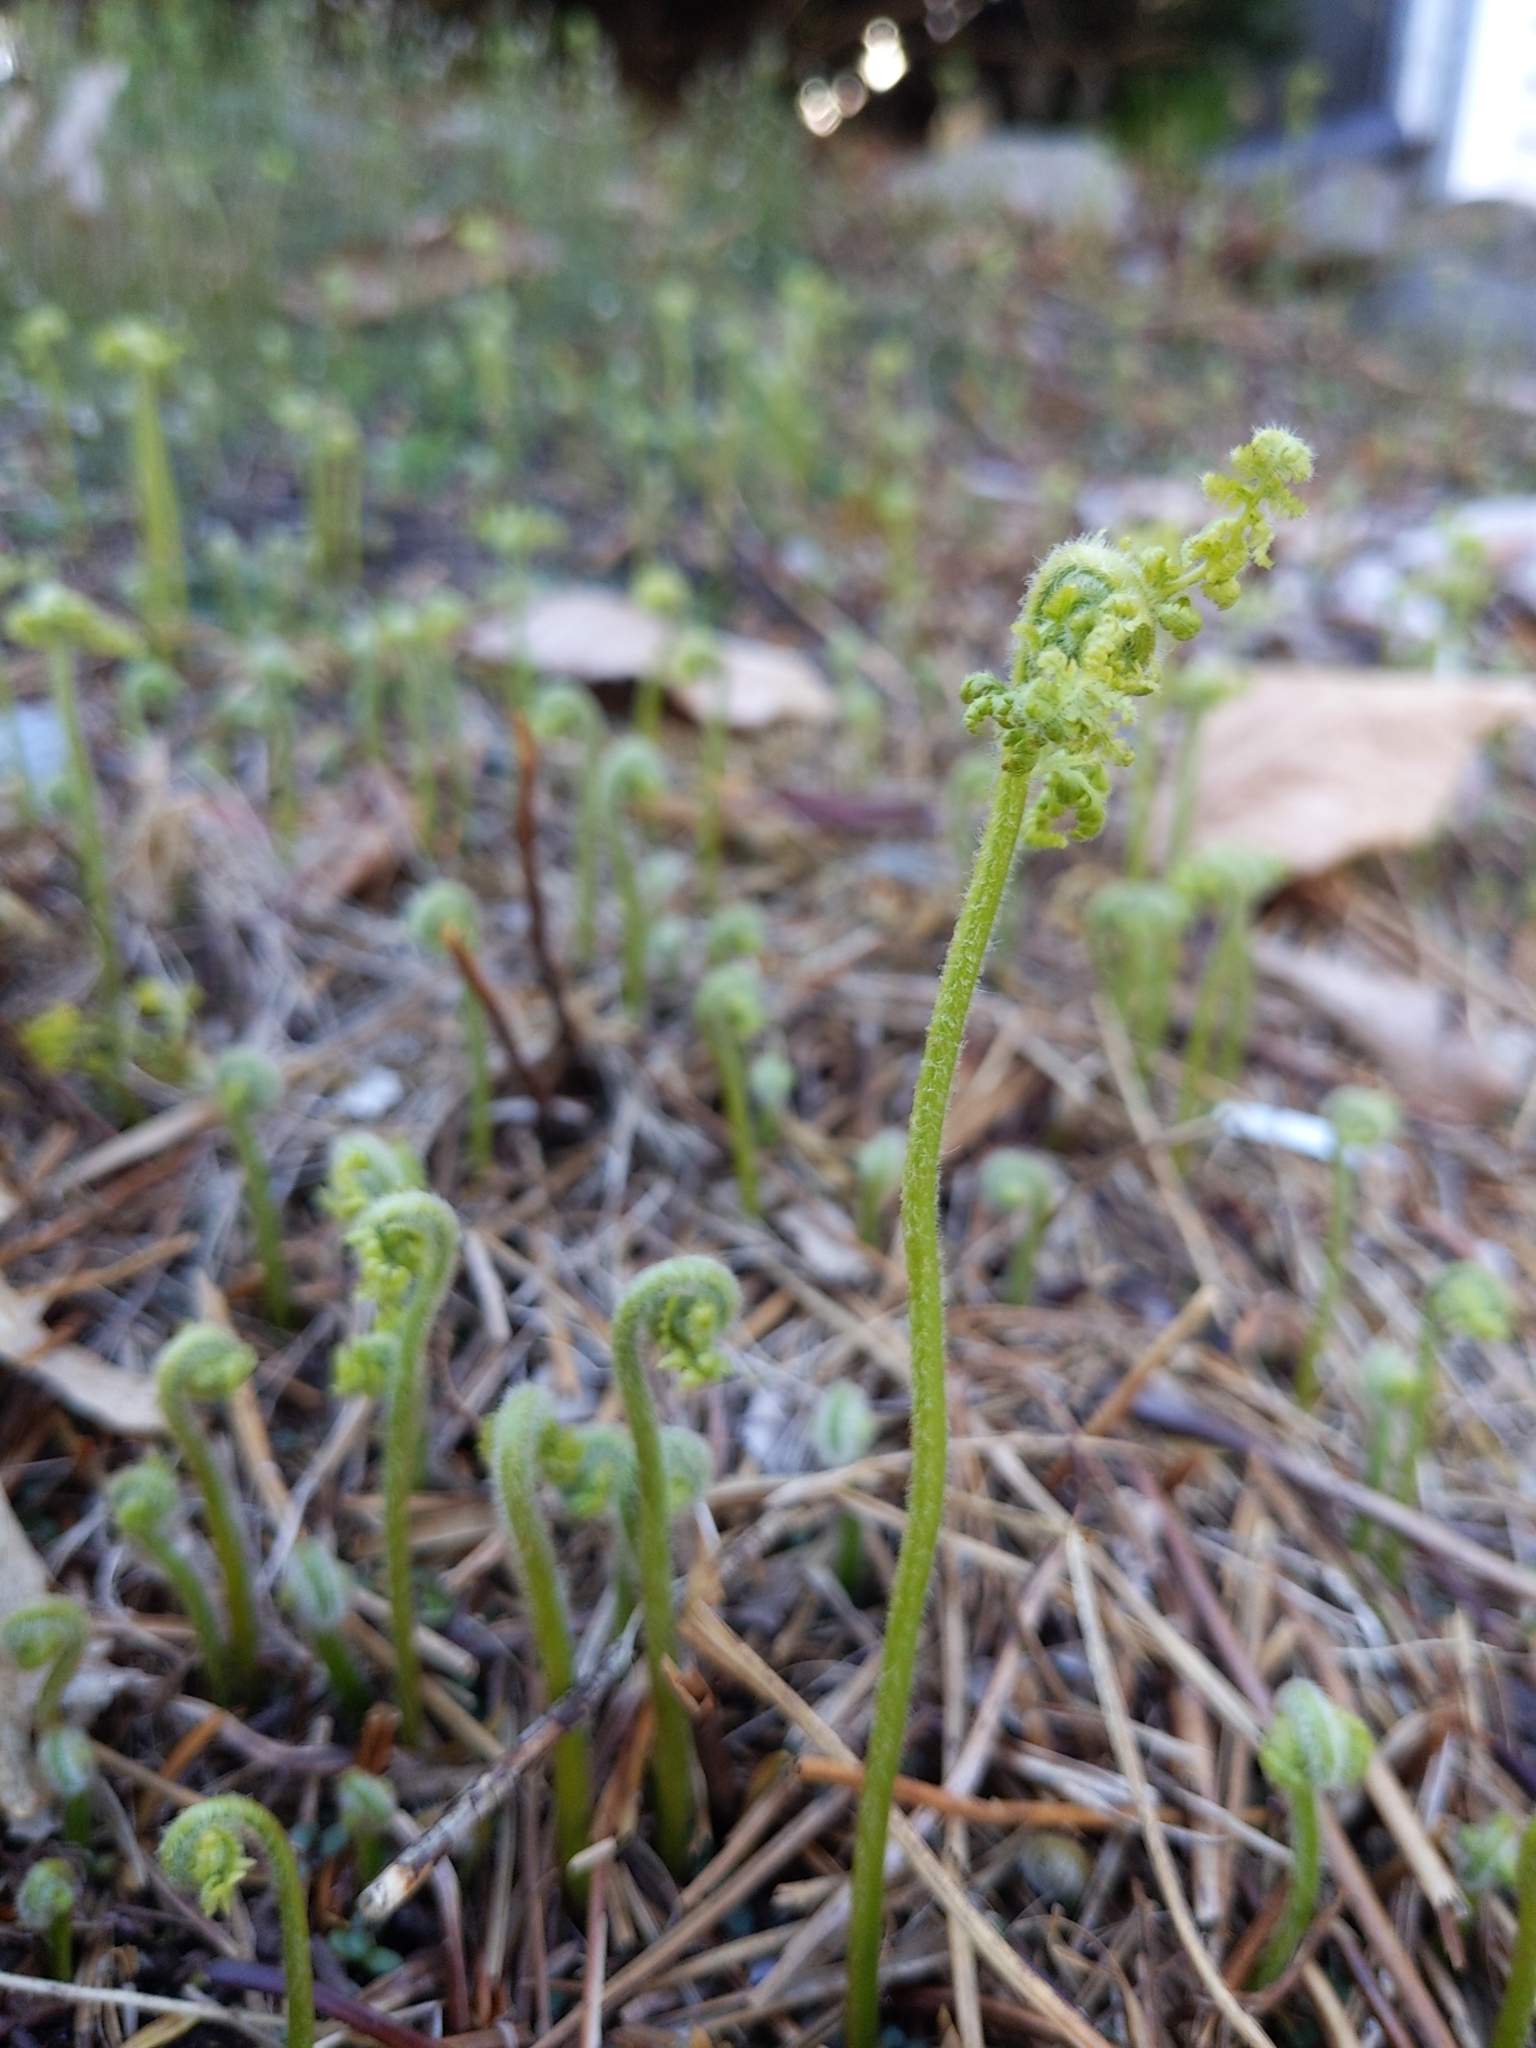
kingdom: Plantae
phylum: Tracheophyta
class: Polypodiopsida
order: Polypodiales
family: Dennstaedtiaceae
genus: Sitobolium
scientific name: Sitobolium punctilobum
